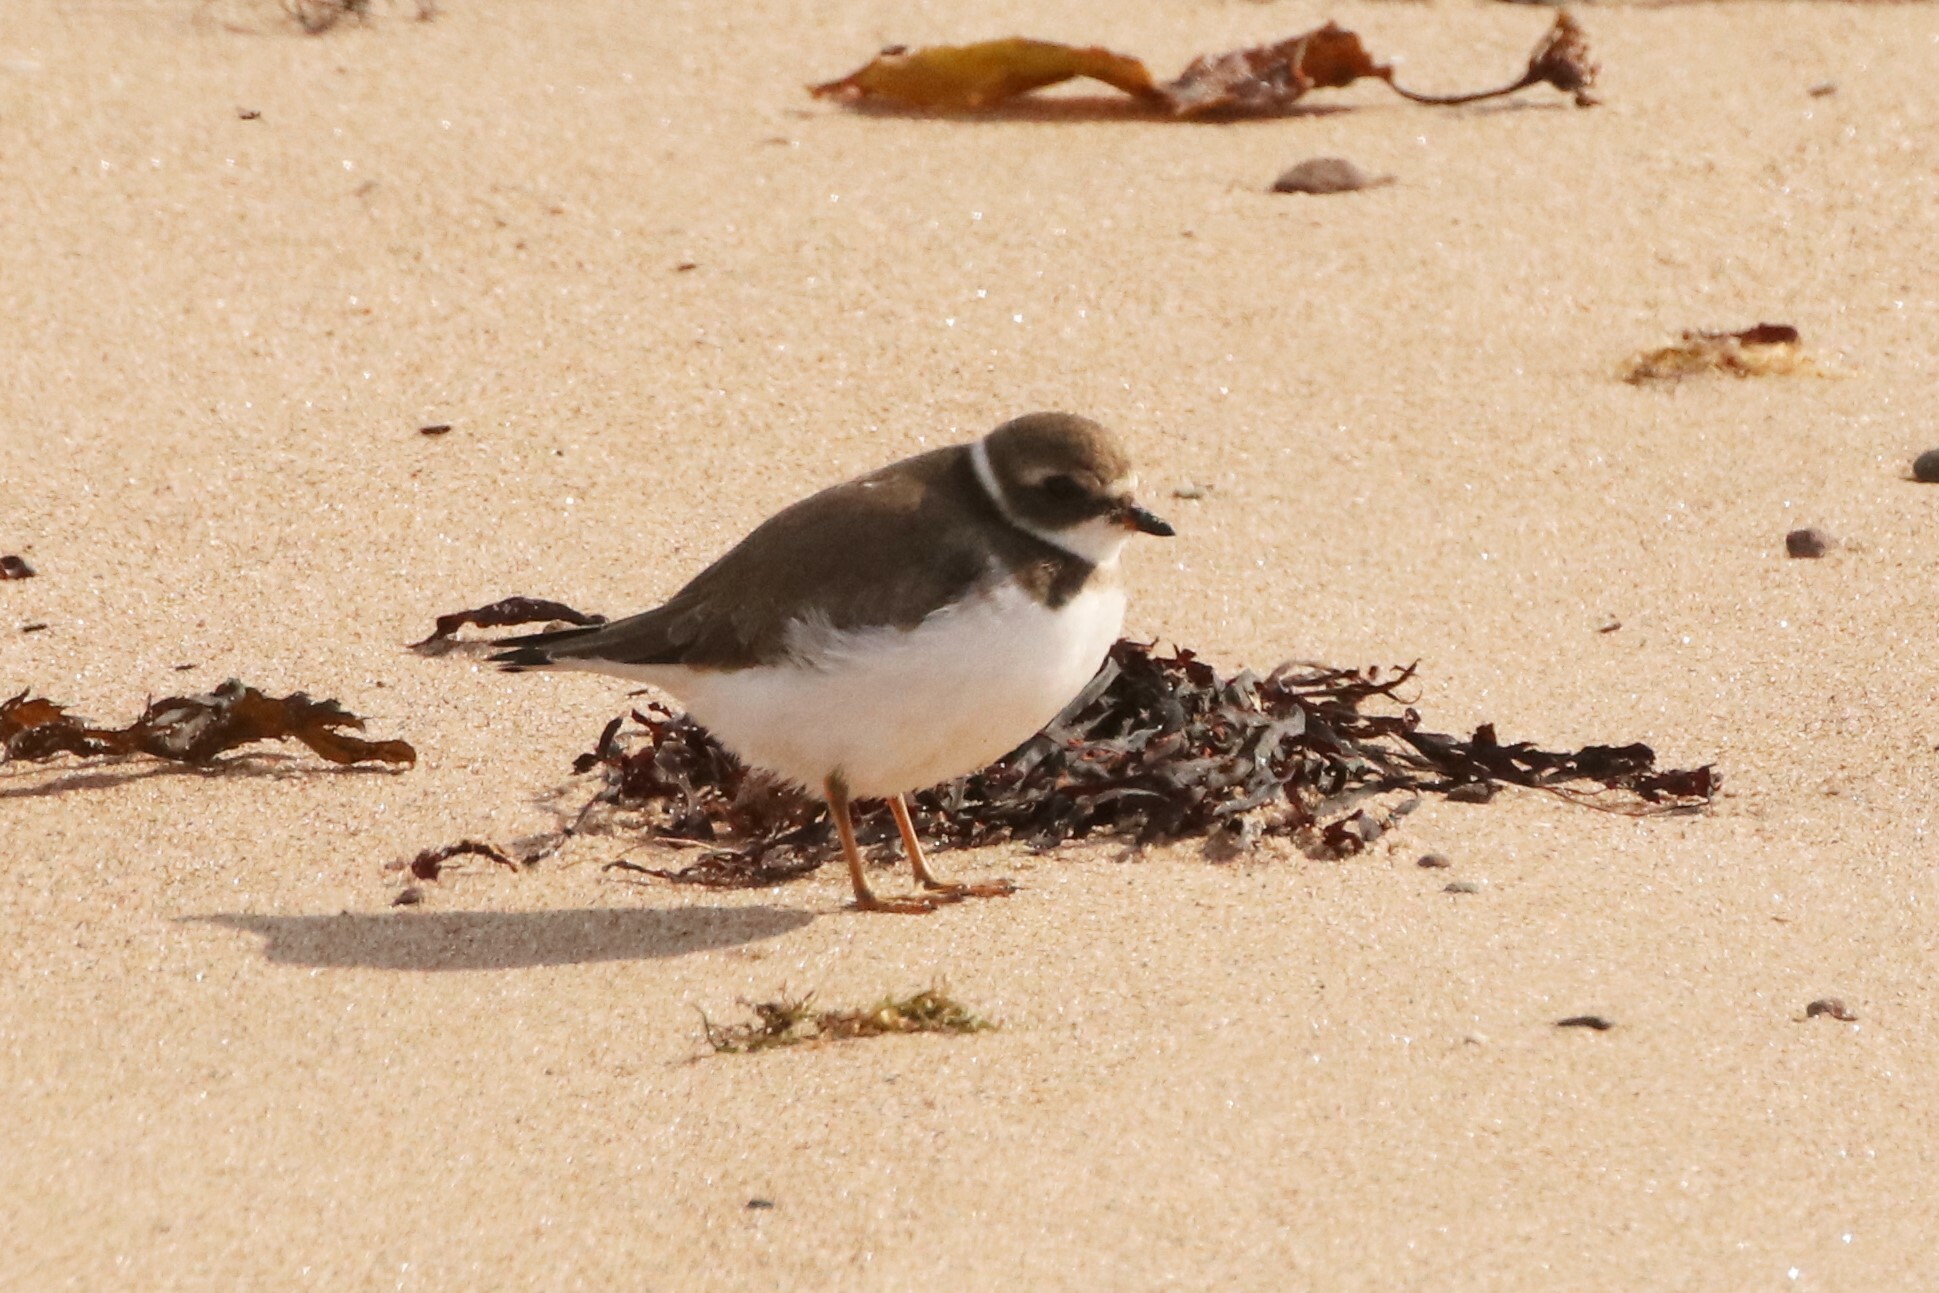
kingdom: Animalia
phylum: Chordata
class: Aves
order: Charadriiformes
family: Charadriidae
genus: Charadrius
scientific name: Charadrius semipalmatus
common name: Semipalmated plover
